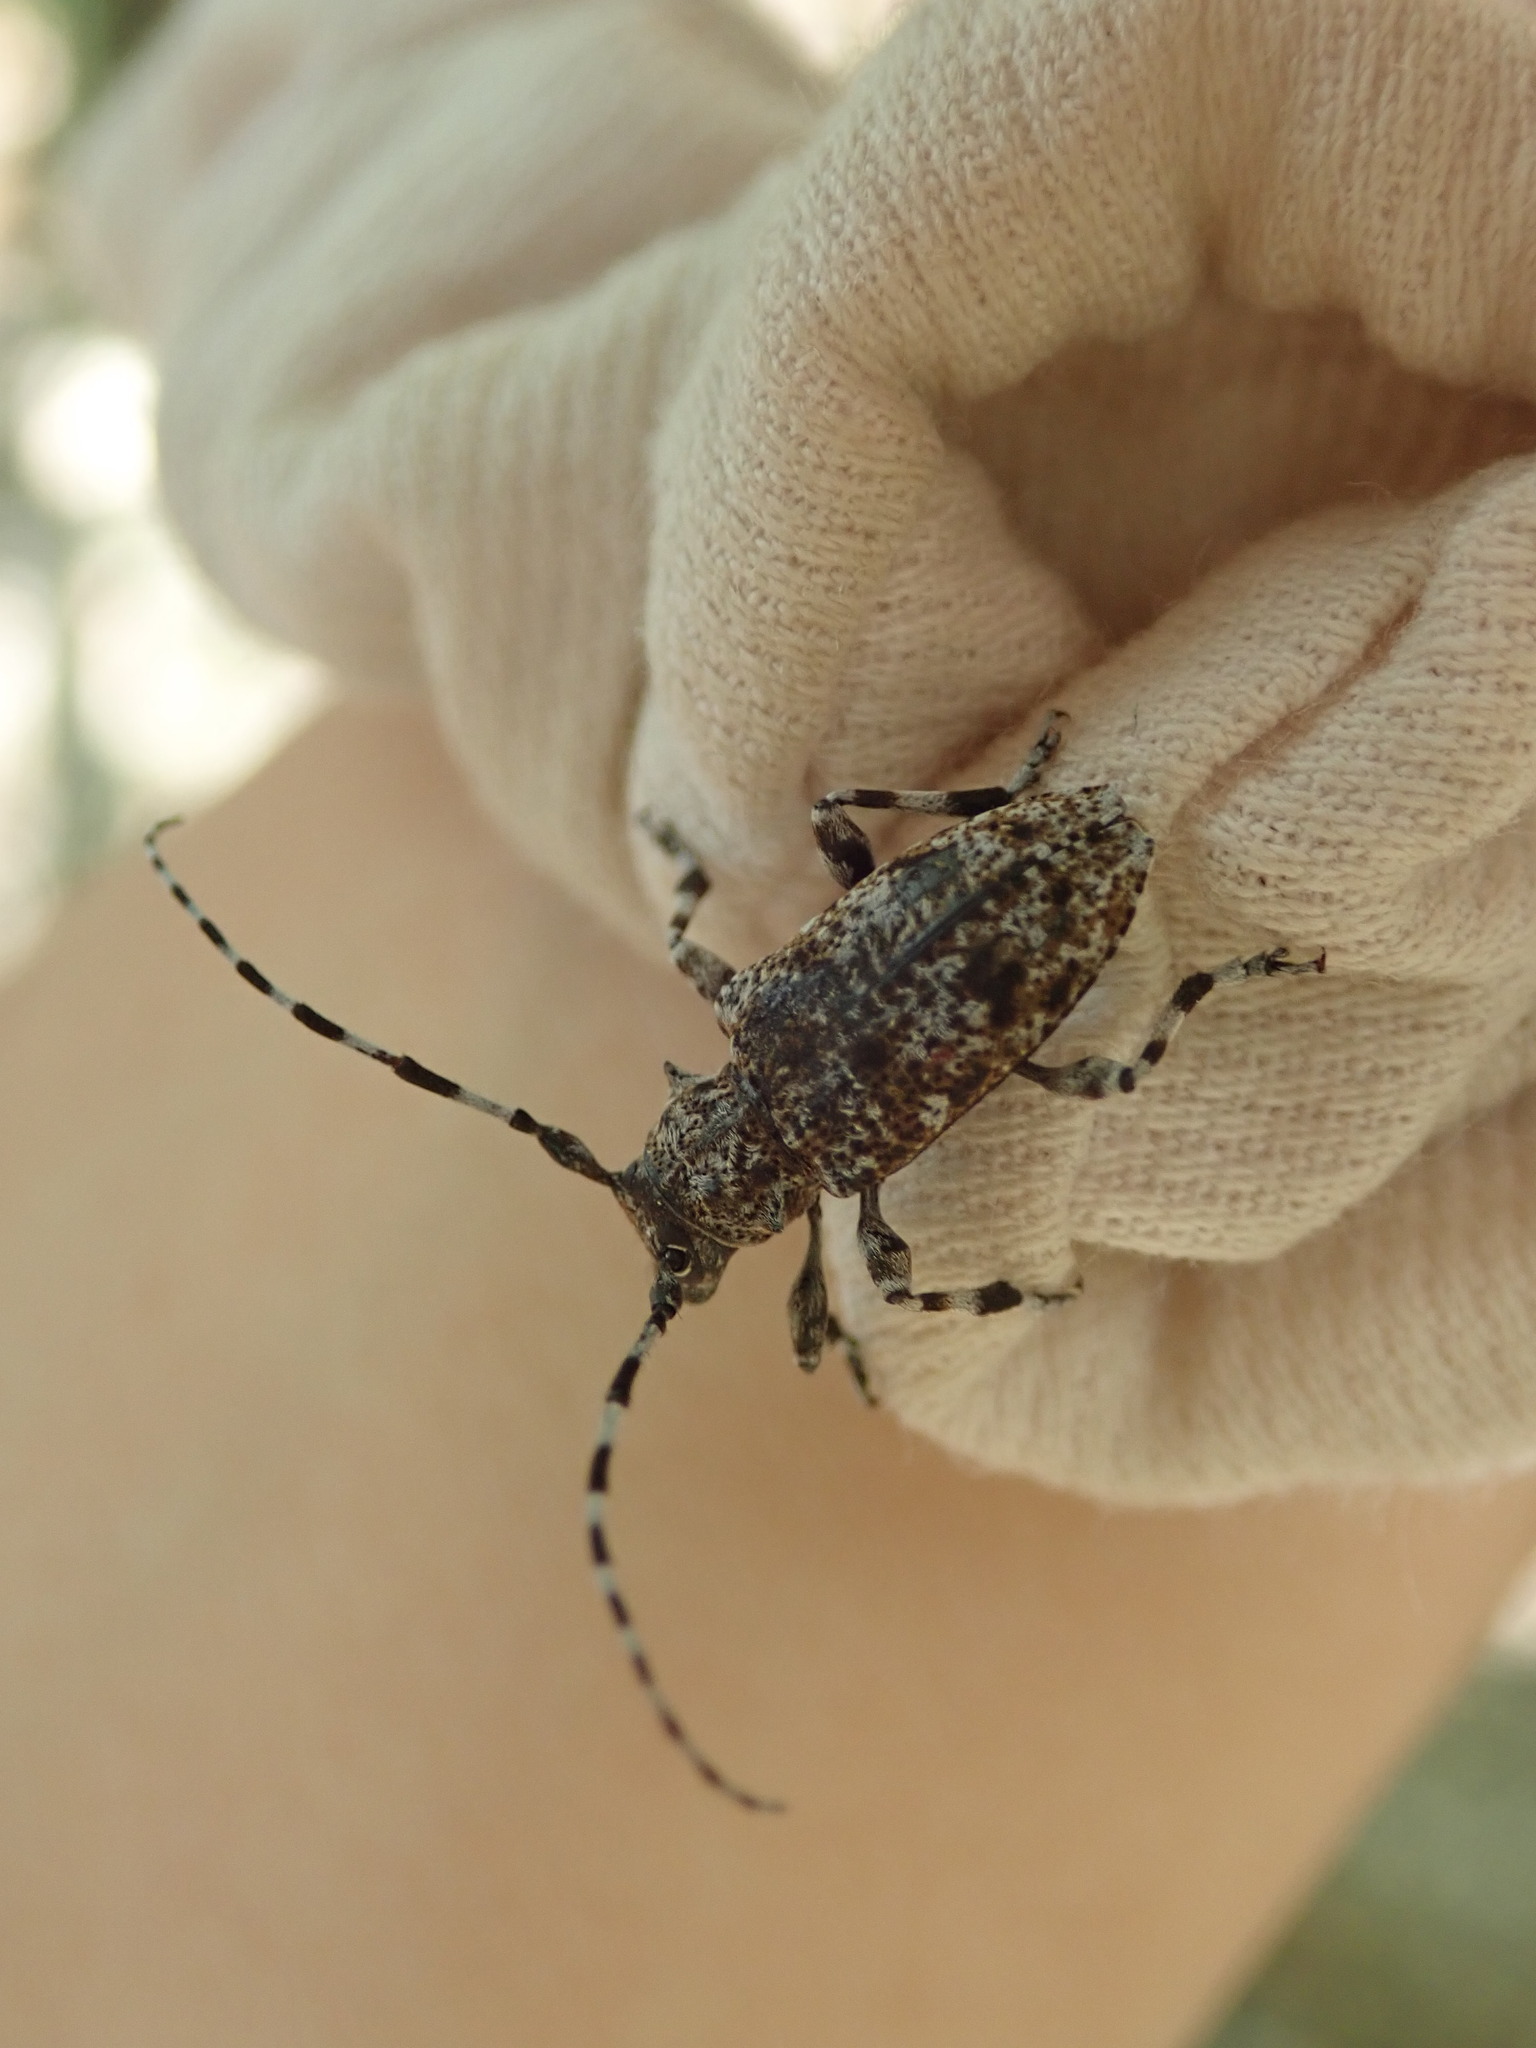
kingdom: Animalia
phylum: Arthropoda
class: Insecta
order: Coleoptera
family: Cerambycidae
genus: Aegomorphus
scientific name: Aegomorphus clavipes
